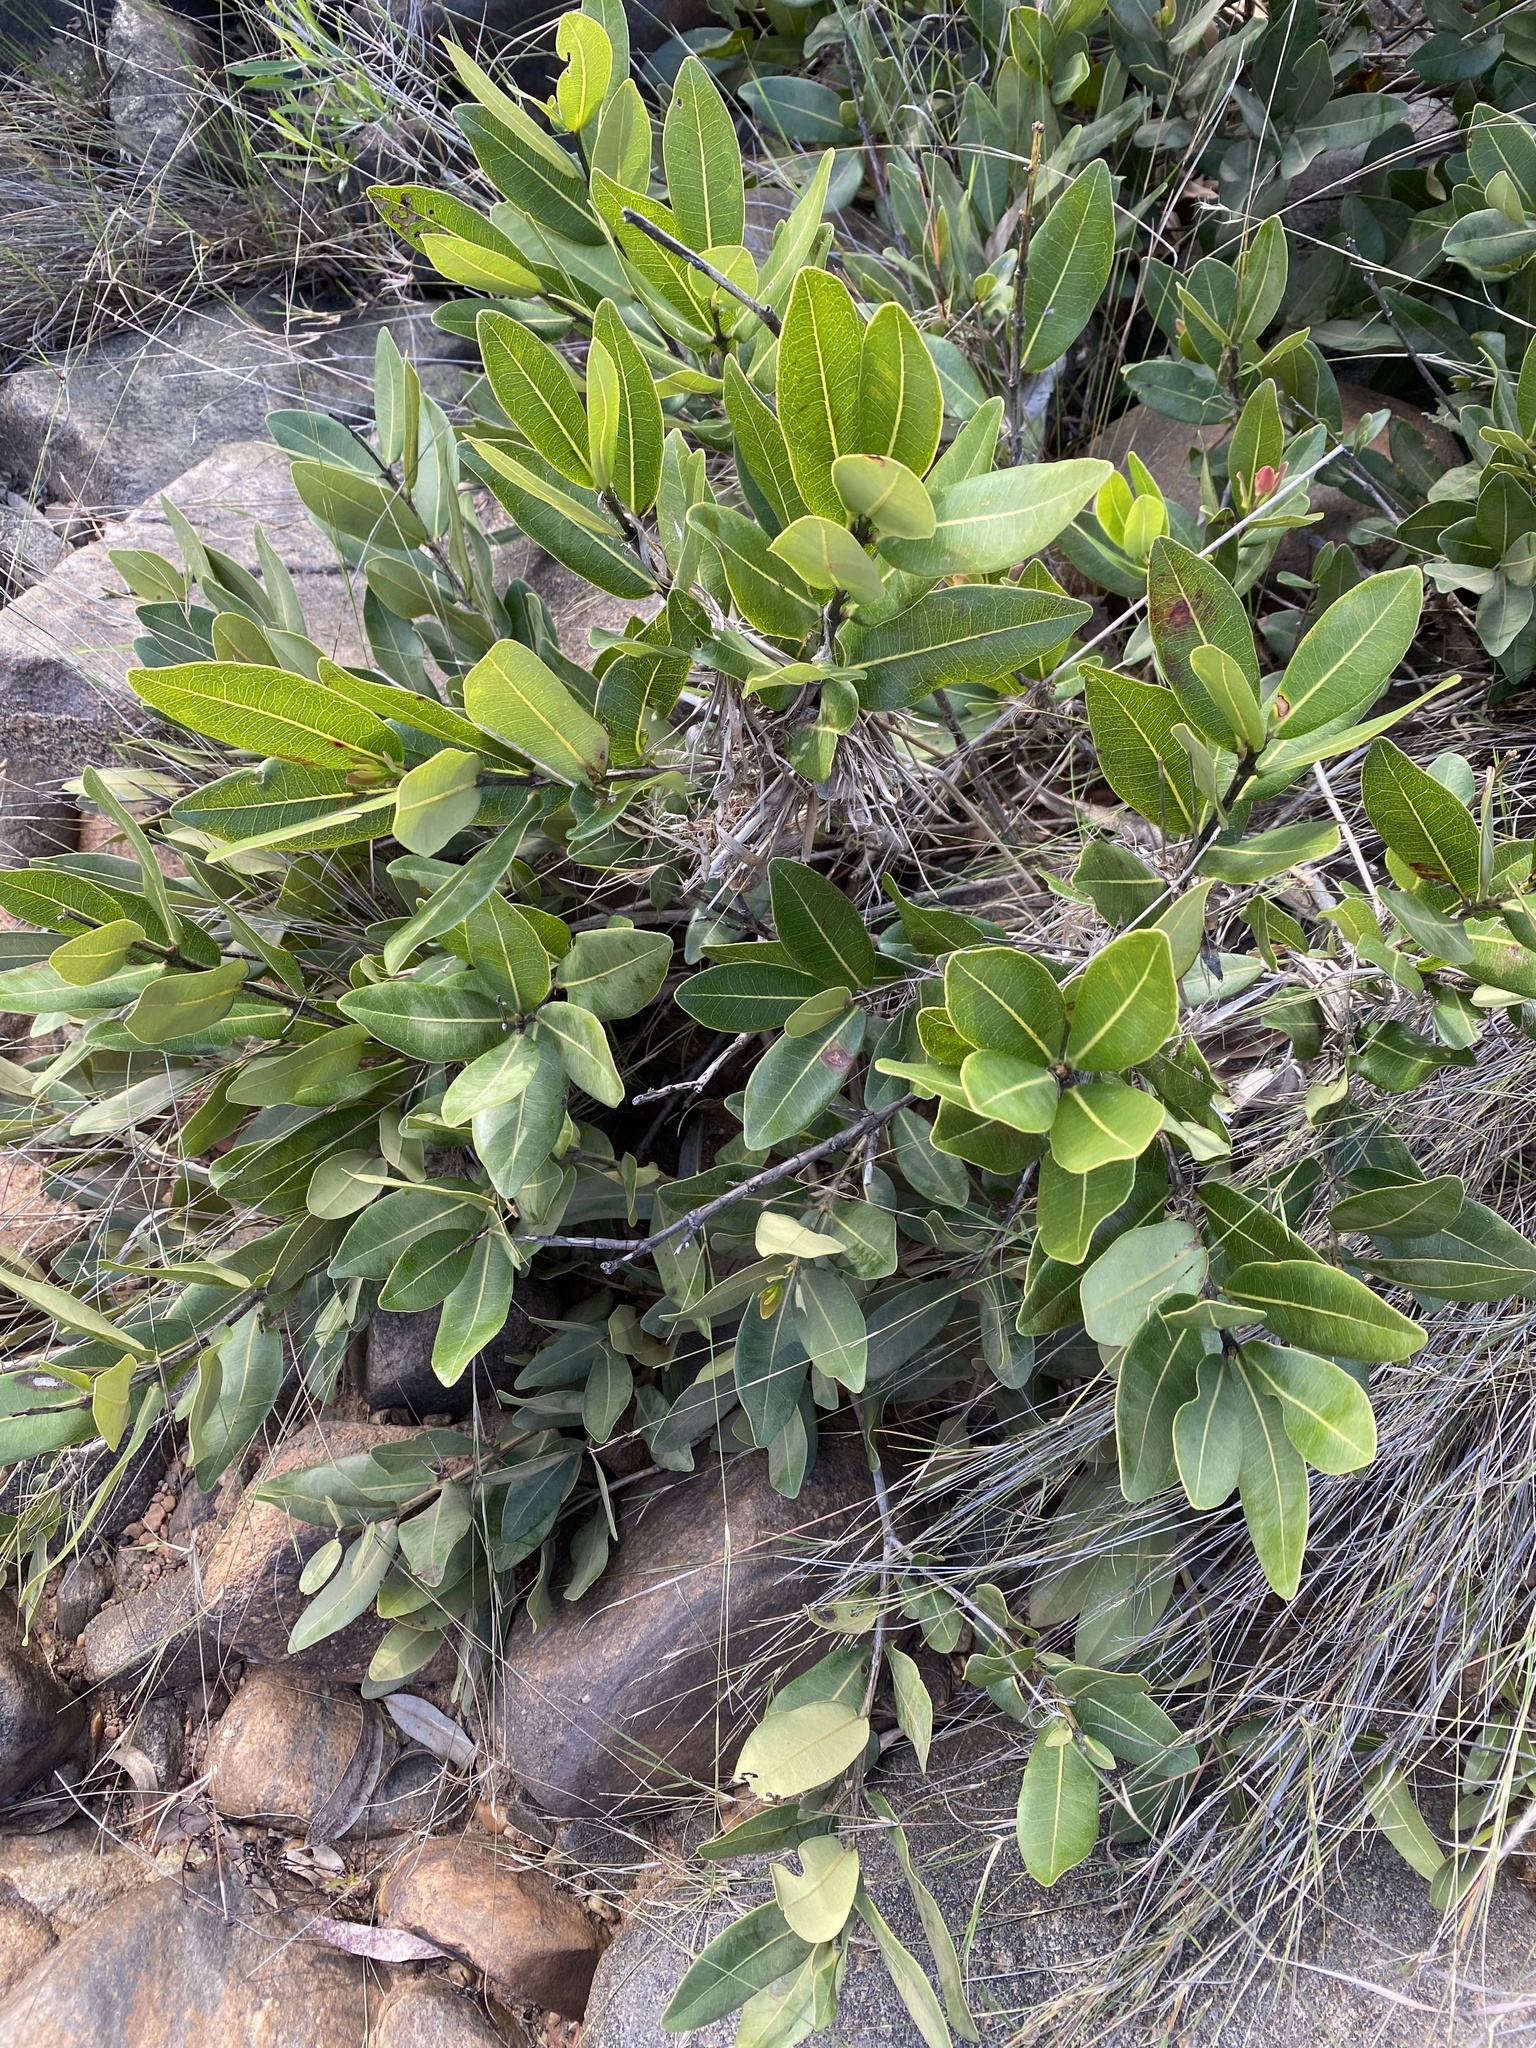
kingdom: Plantae
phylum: Tracheophyta
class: Magnoliopsida
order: Myrtales
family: Myrtaceae
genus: Syzygium
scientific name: Syzygium cordatum
